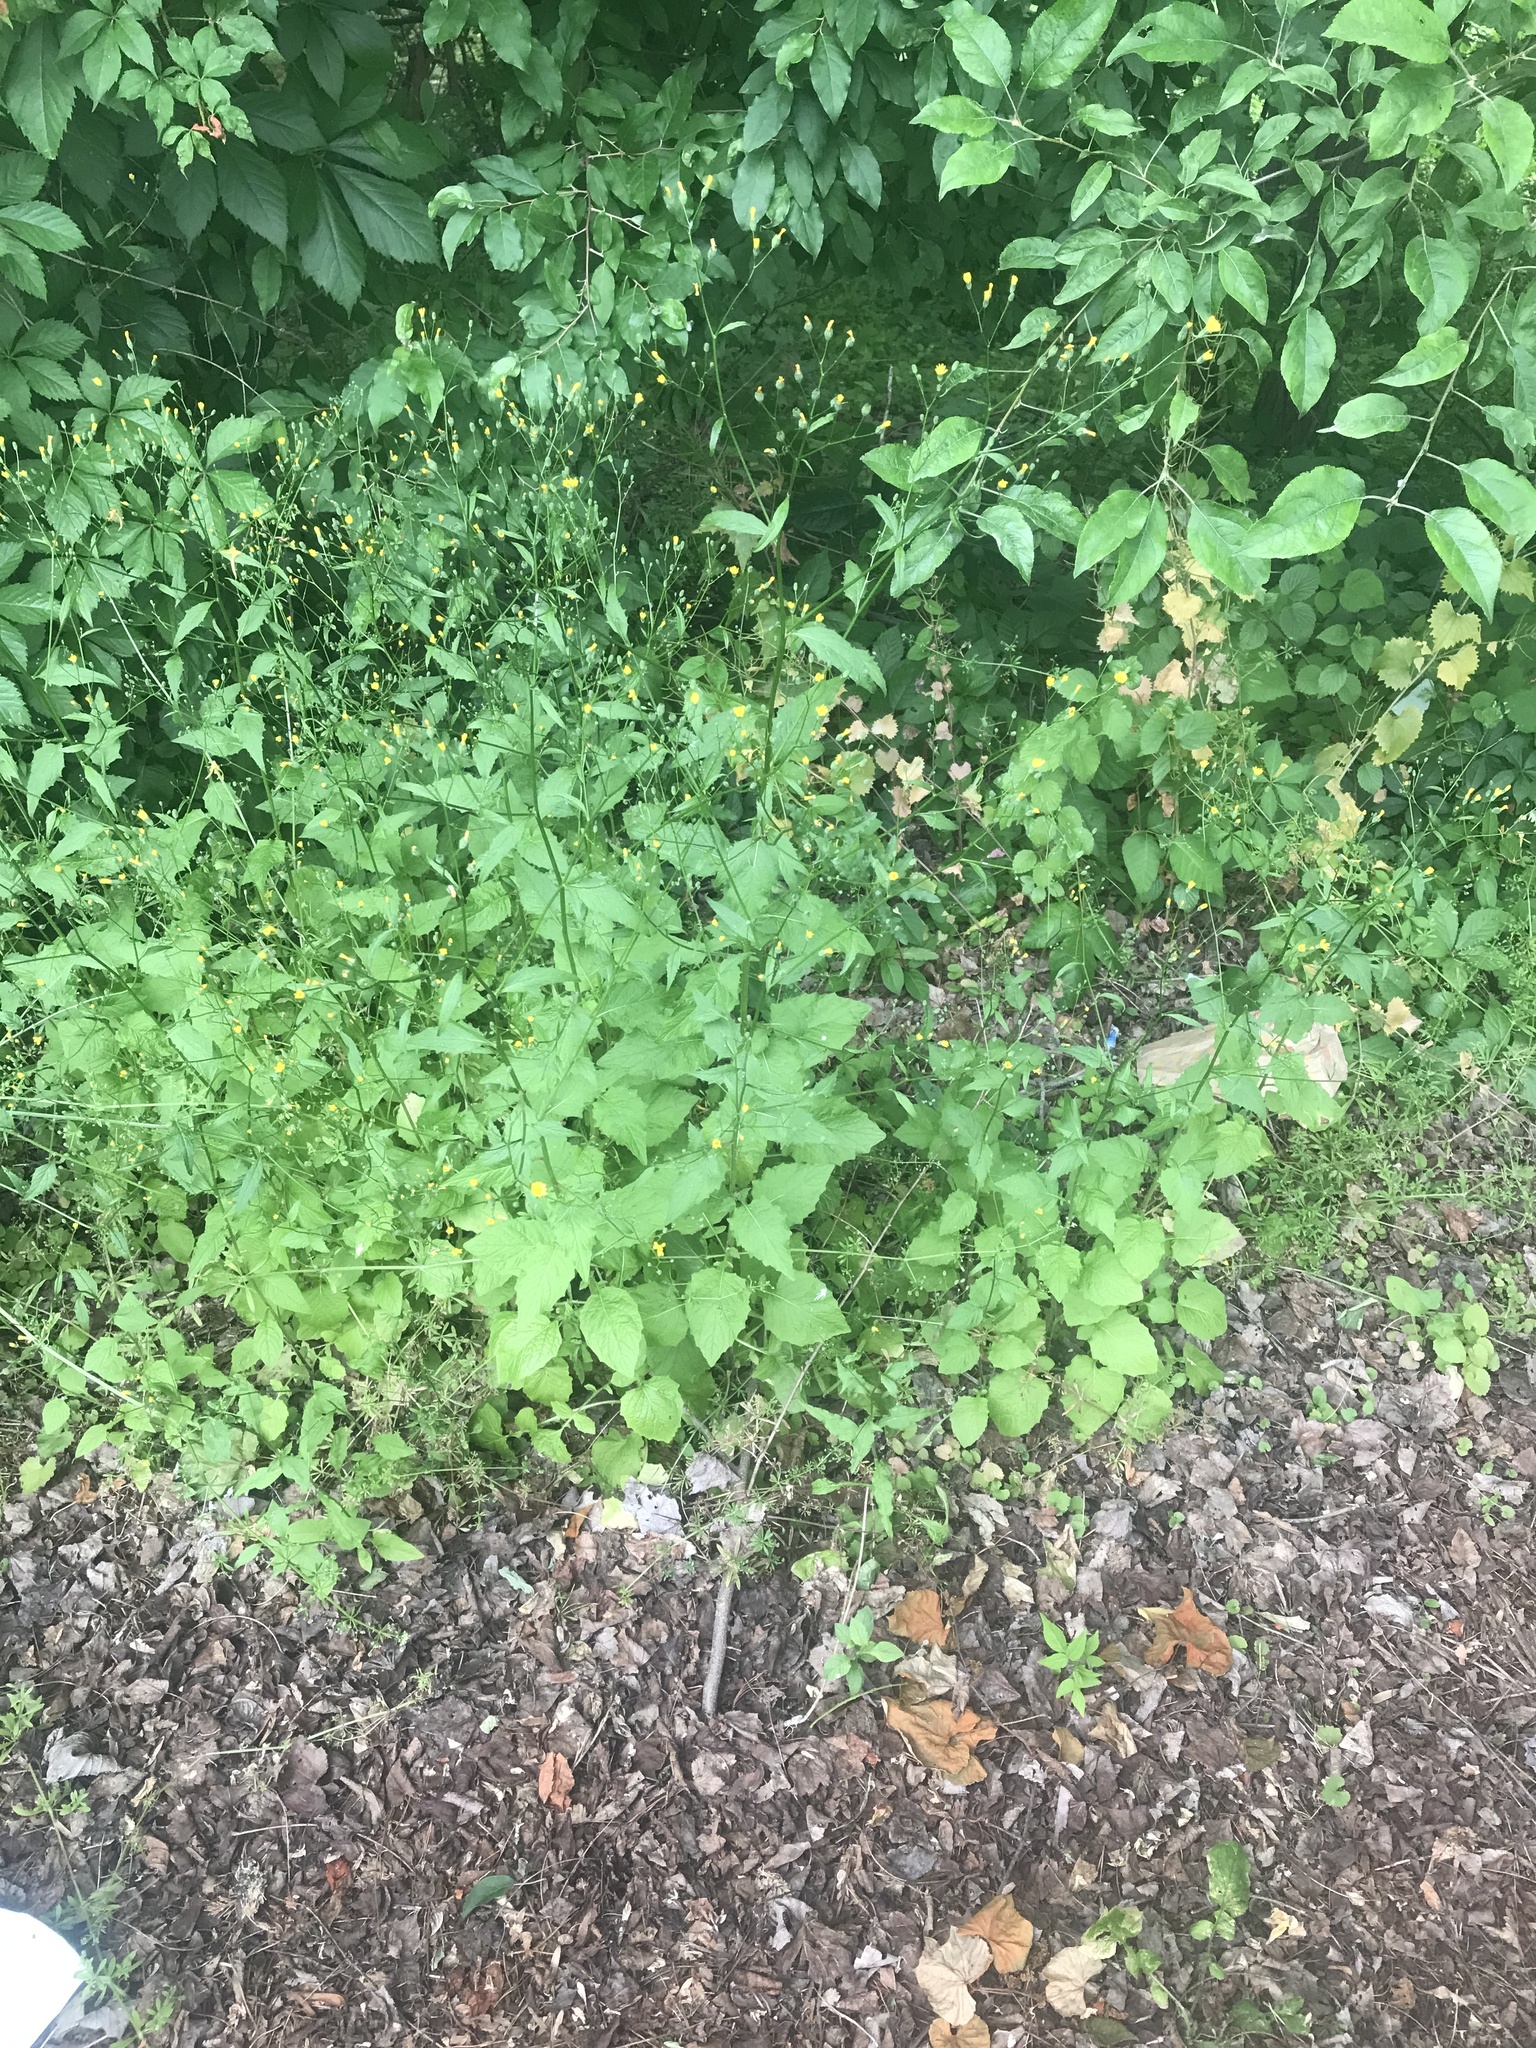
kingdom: Plantae
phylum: Tracheophyta
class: Magnoliopsida
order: Asterales
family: Asteraceae
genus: Lapsana
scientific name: Lapsana communis
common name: Nipplewort
